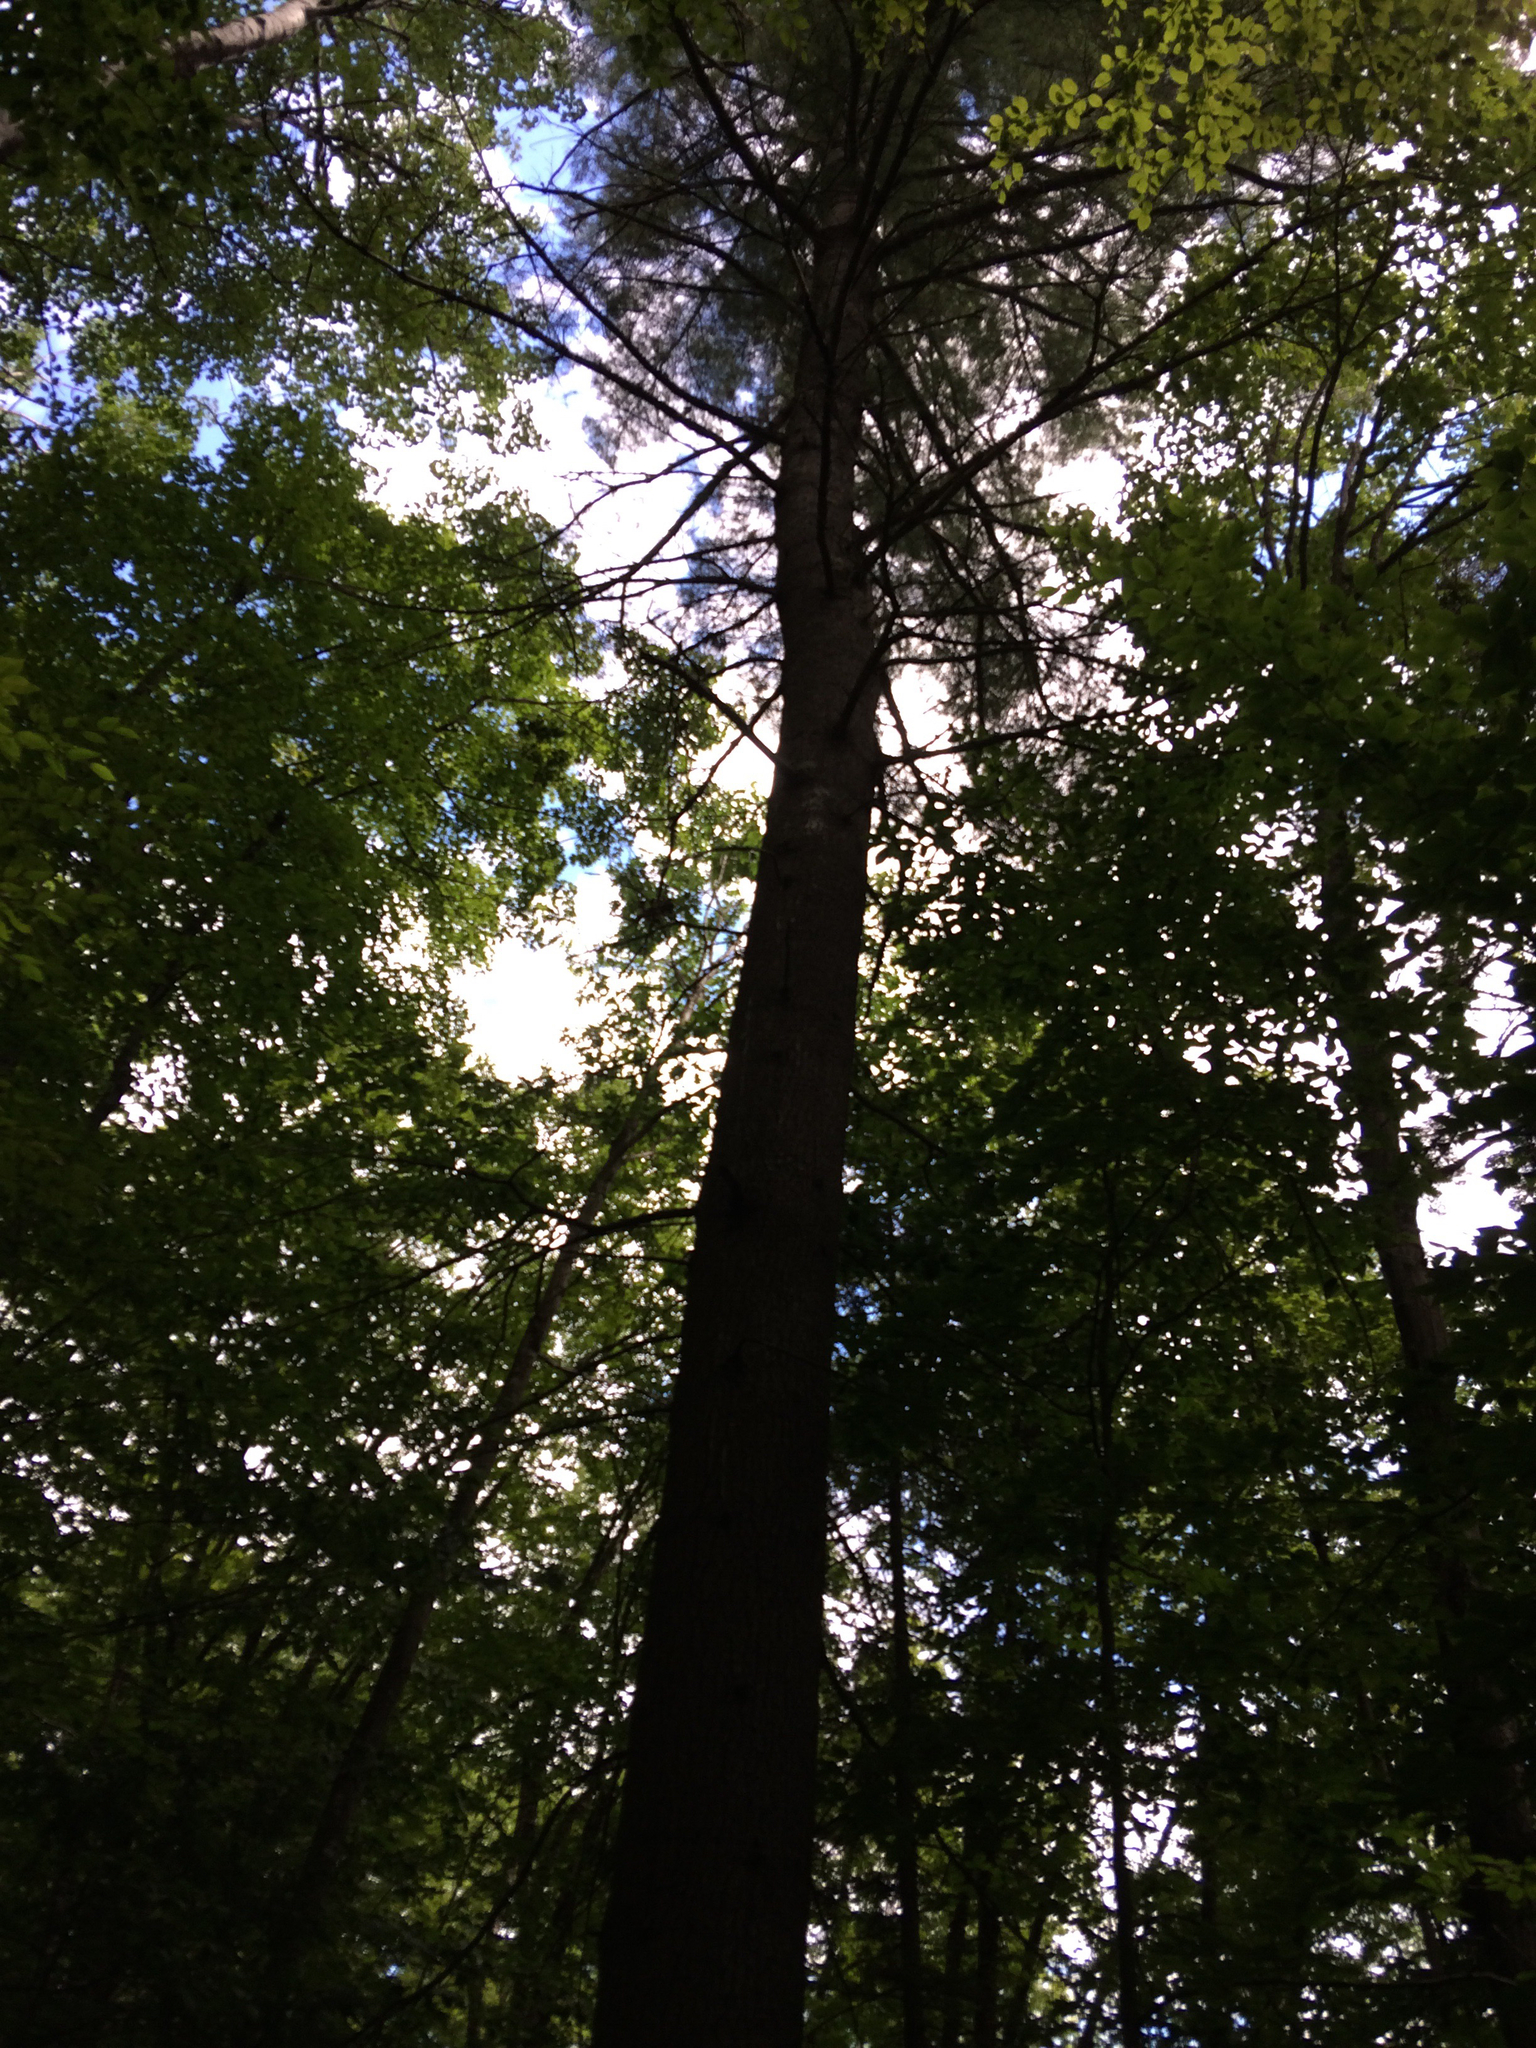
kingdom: Plantae
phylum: Tracheophyta
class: Pinopsida
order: Pinales
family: Pinaceae
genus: Pinus
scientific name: Pinus strobus
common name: Weymouth pine
